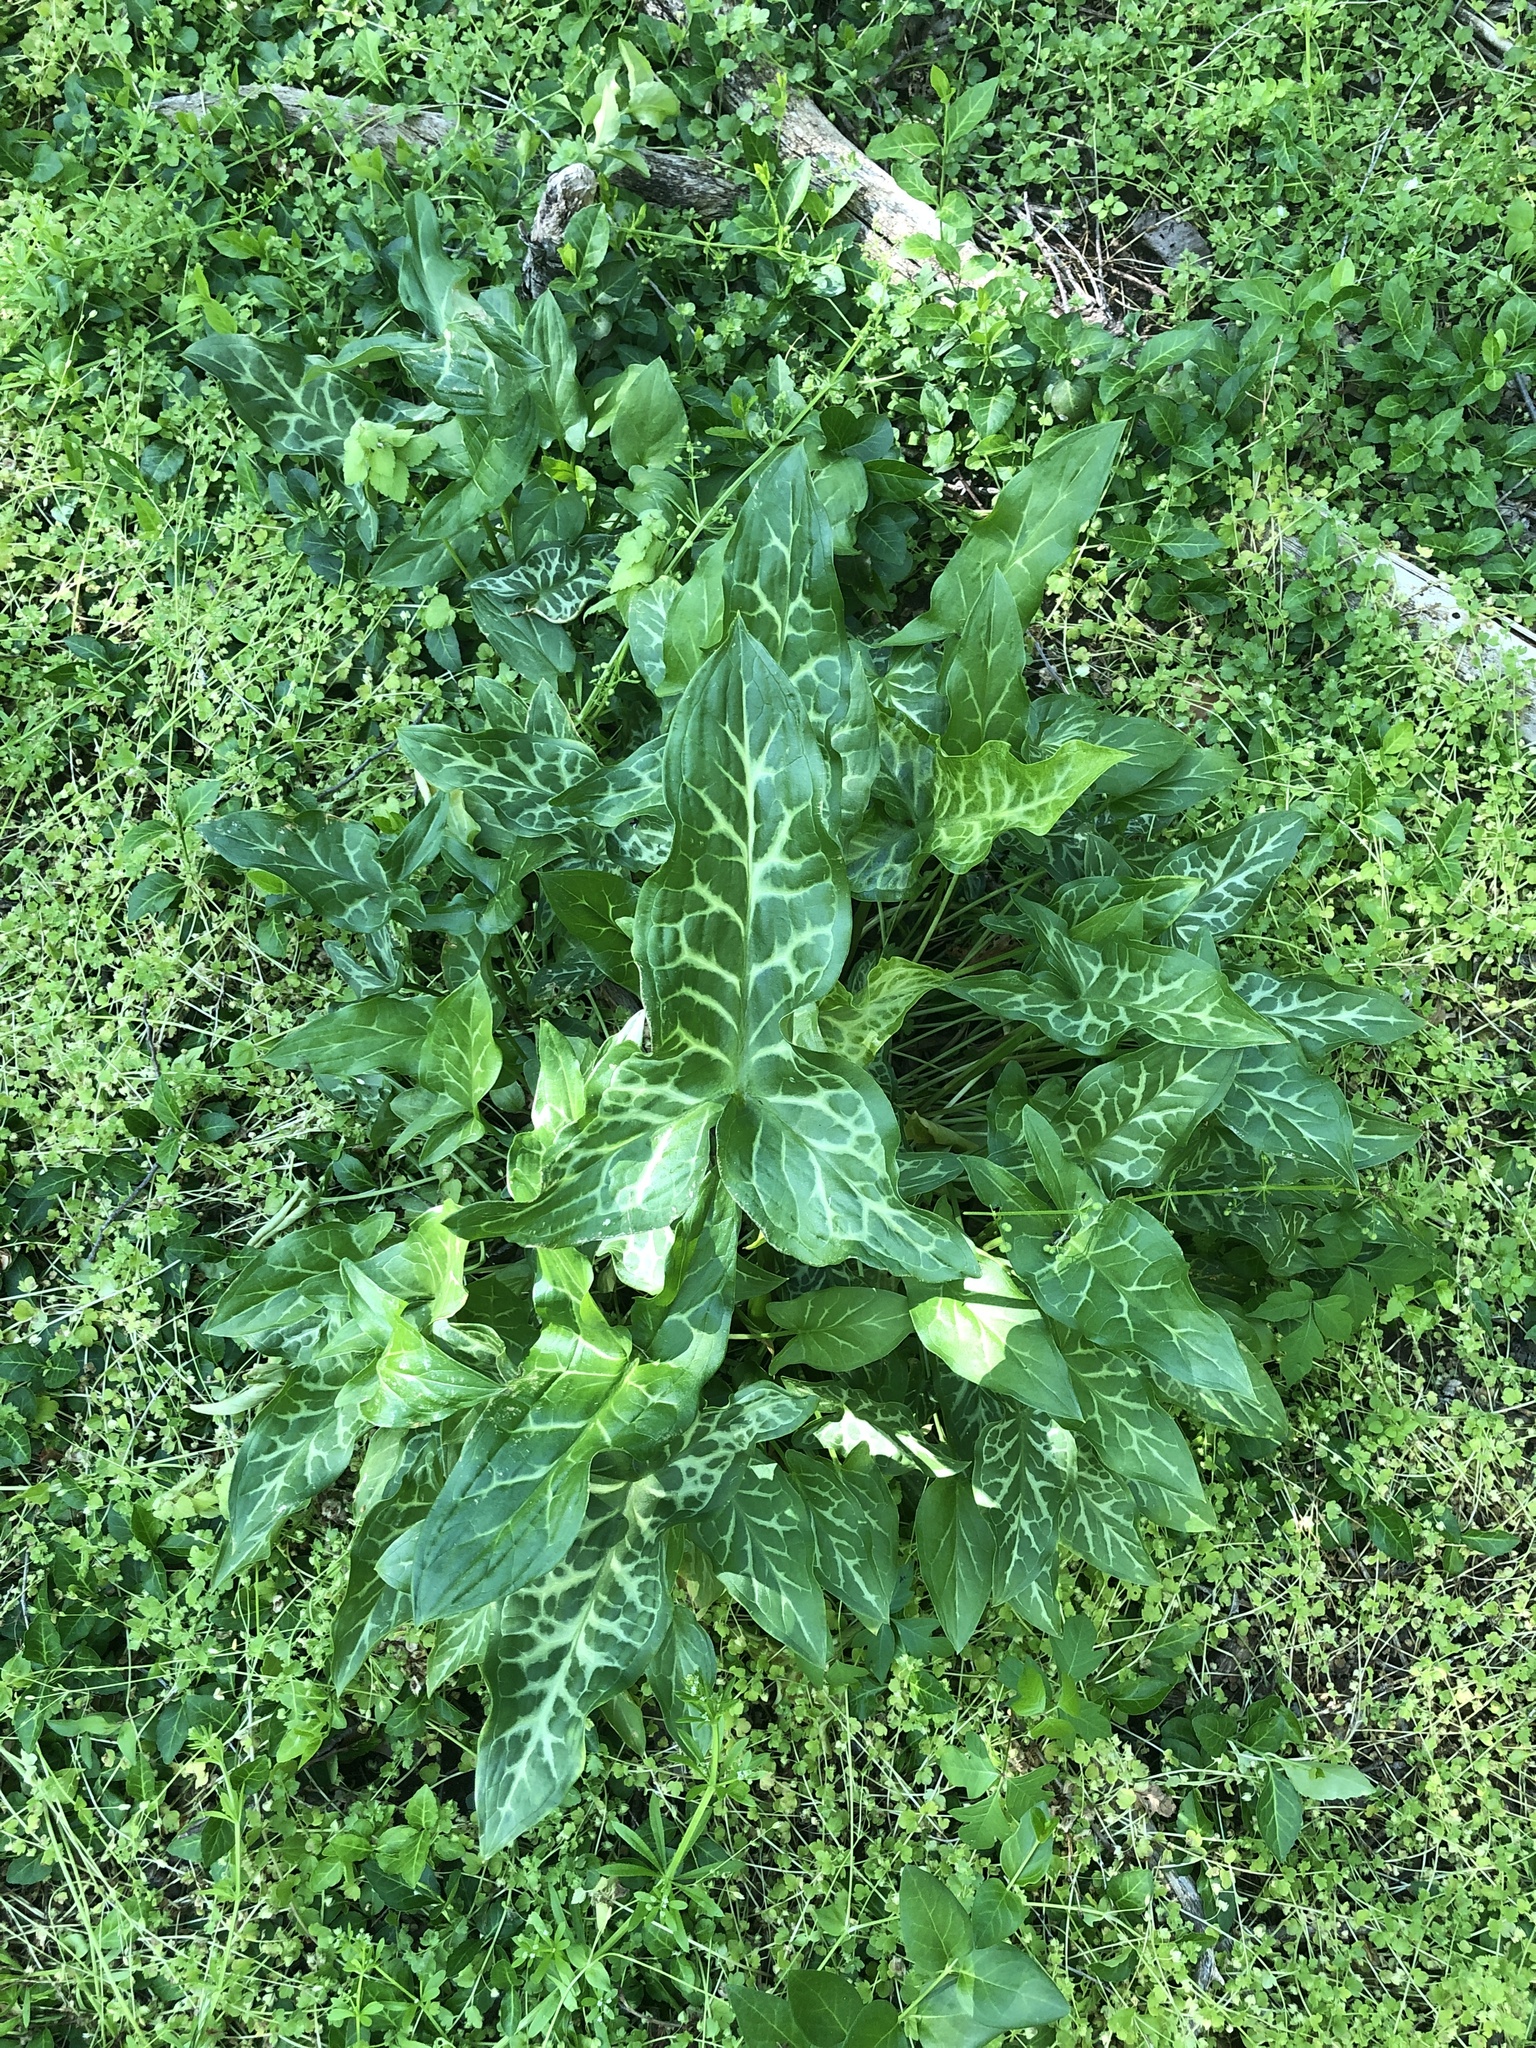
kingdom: Plantae
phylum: Tracheophyta
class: Liliopsida
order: Alismatales
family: Araceae
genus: Arum
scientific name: Arum italicum
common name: Italian lords-and-ladies
